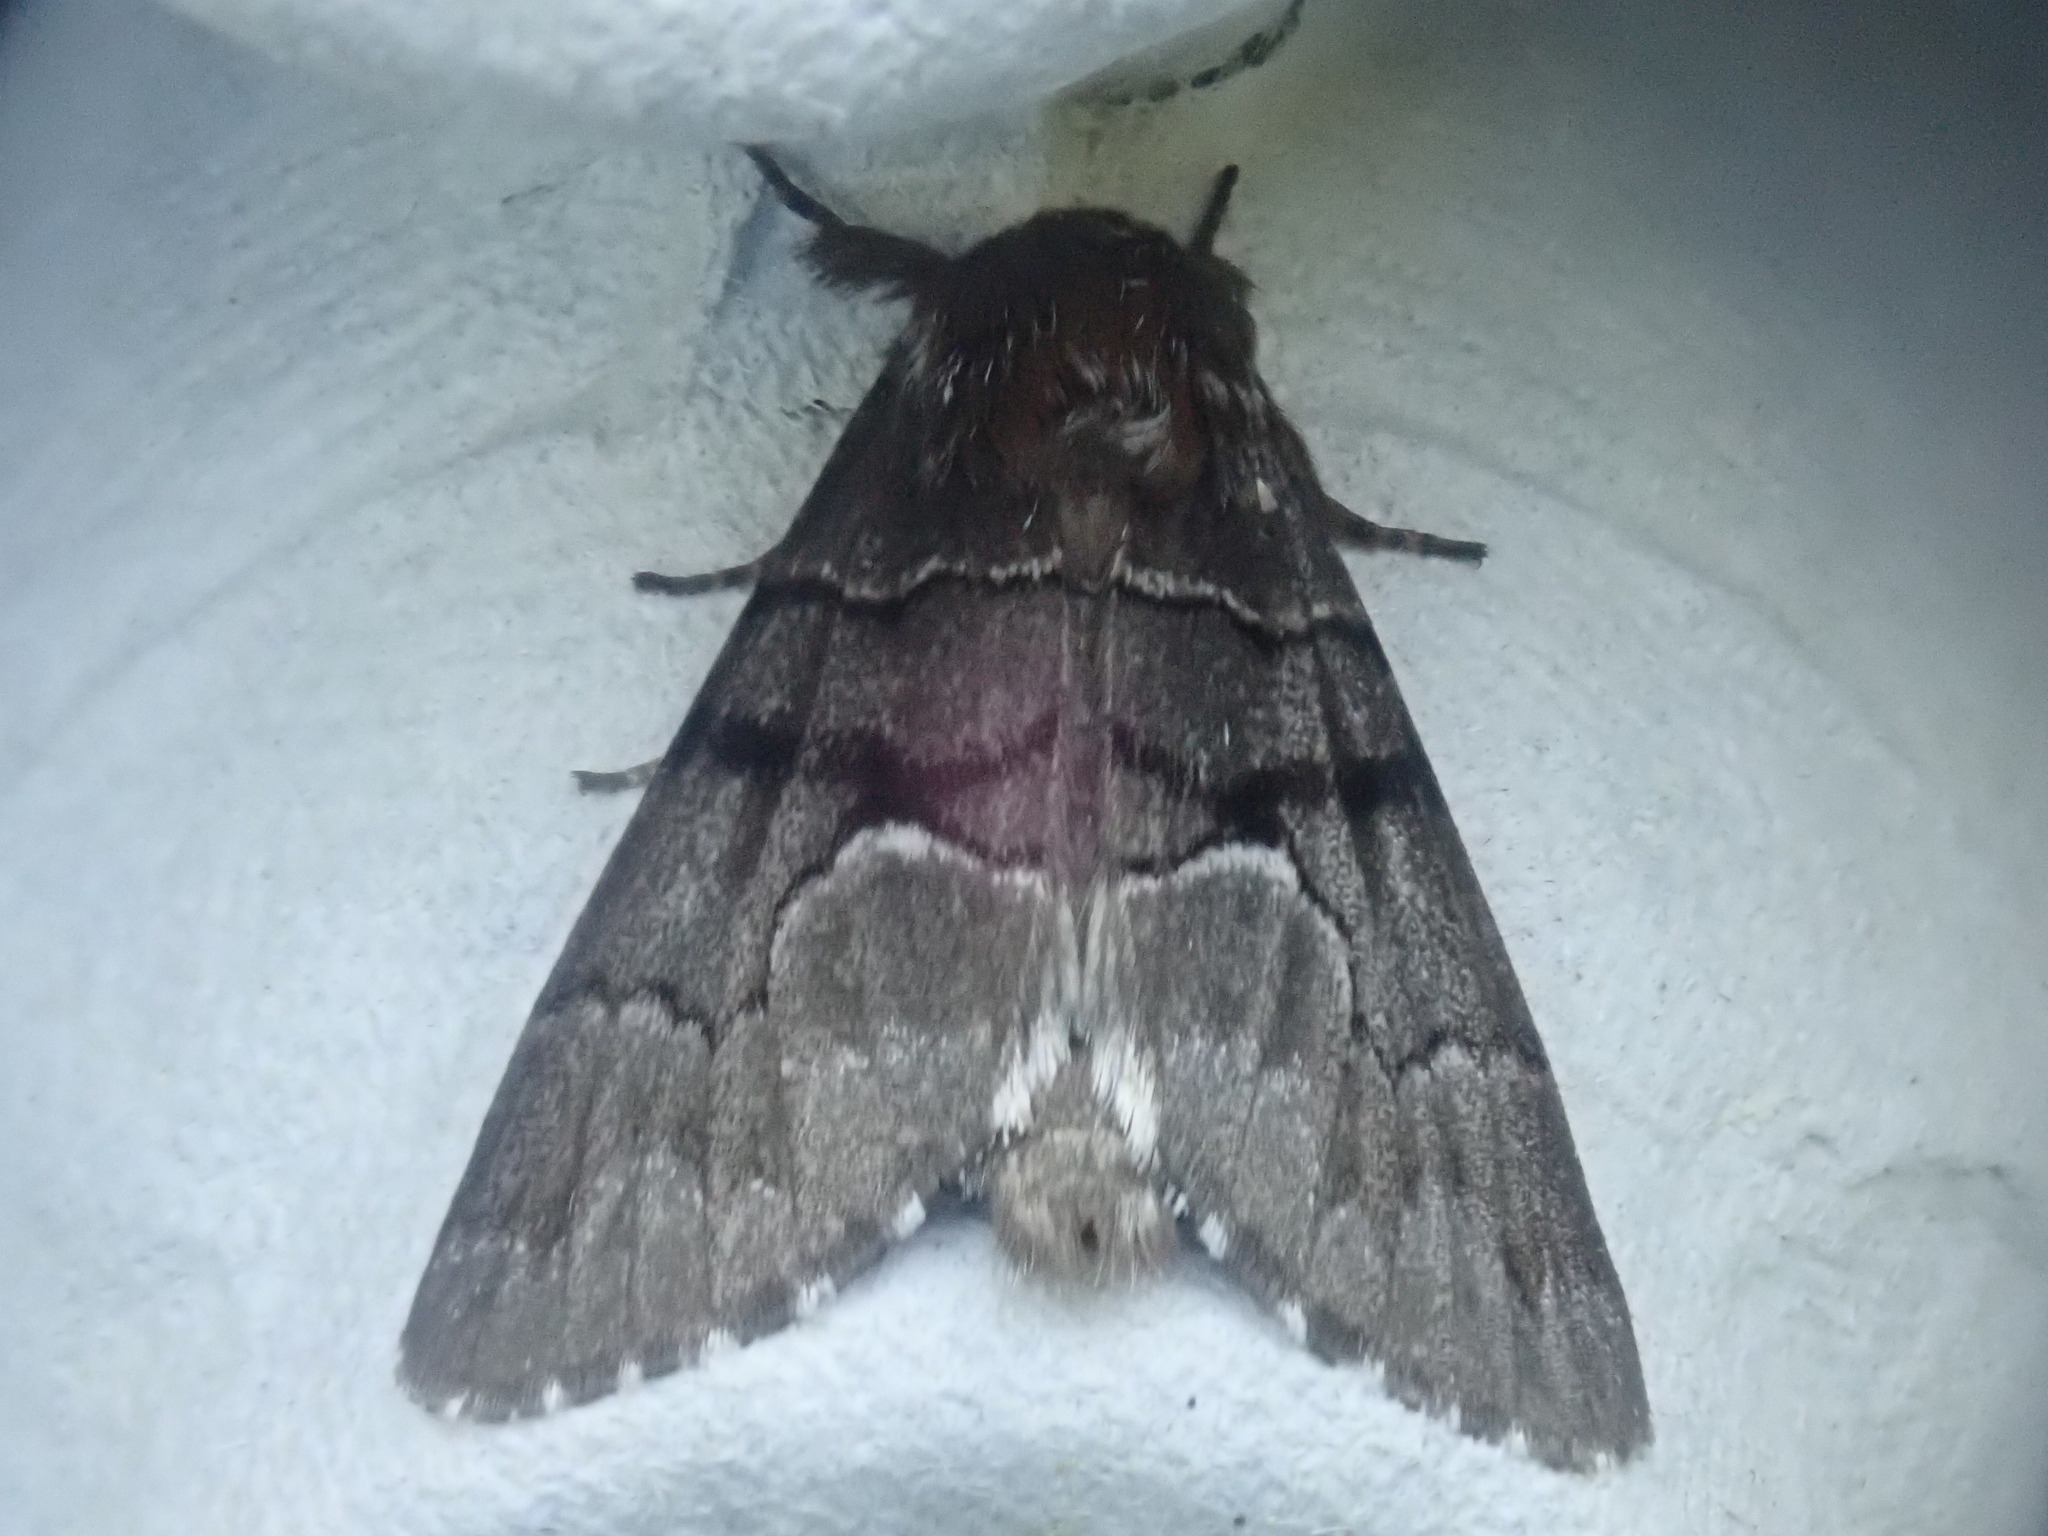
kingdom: Animalia
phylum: Arthropoda
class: Insecta
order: Lepidoptera
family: Noctuidae
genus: Panthea
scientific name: Panthea furcilla
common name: Eastern panthea moth
